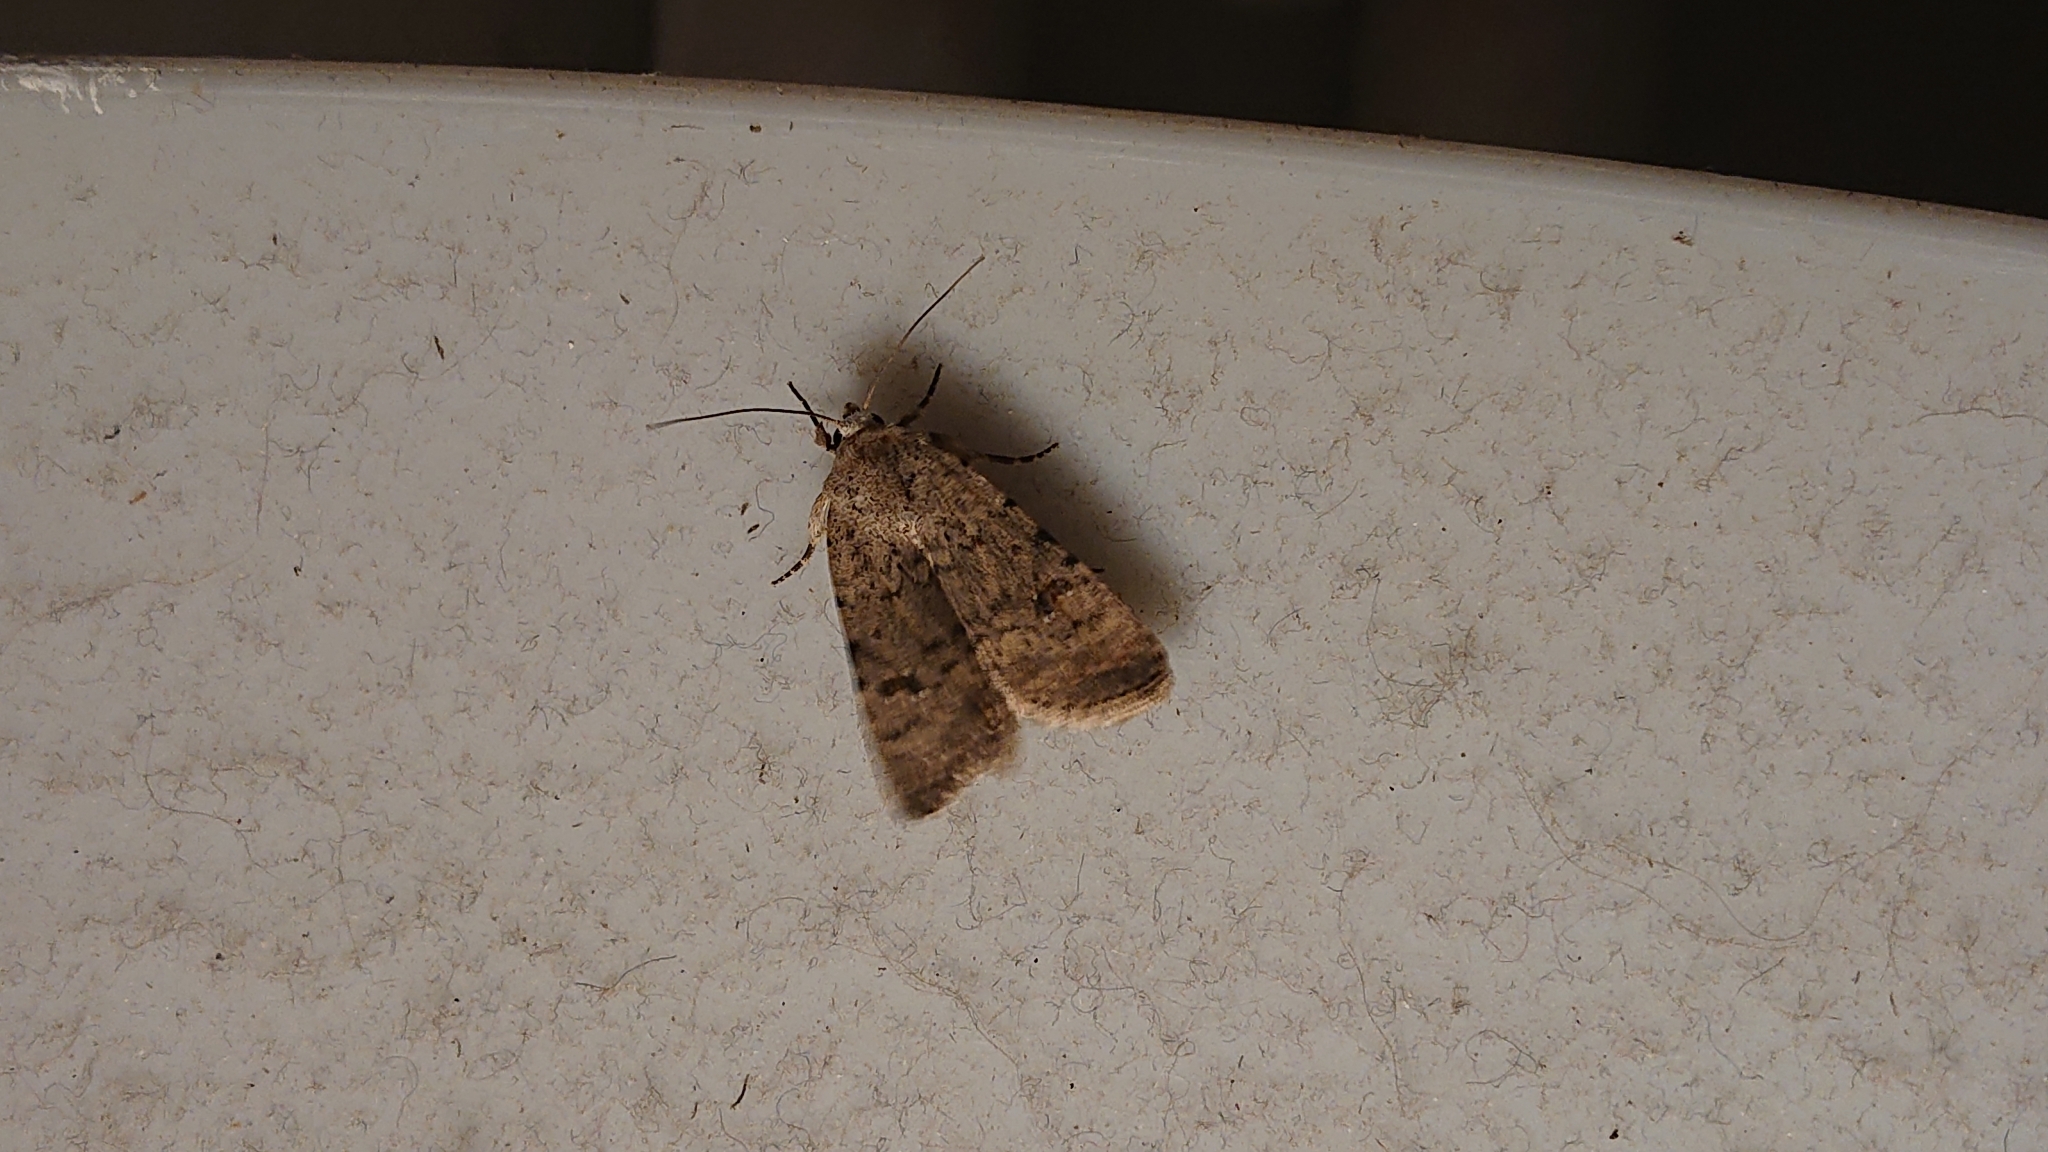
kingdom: Animalia
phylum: Arthropoda
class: Insecta
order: Lepidoptera
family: Noctuidae
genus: Caradrina
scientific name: Caradrina clavipalpis
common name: Pale mottled willow
